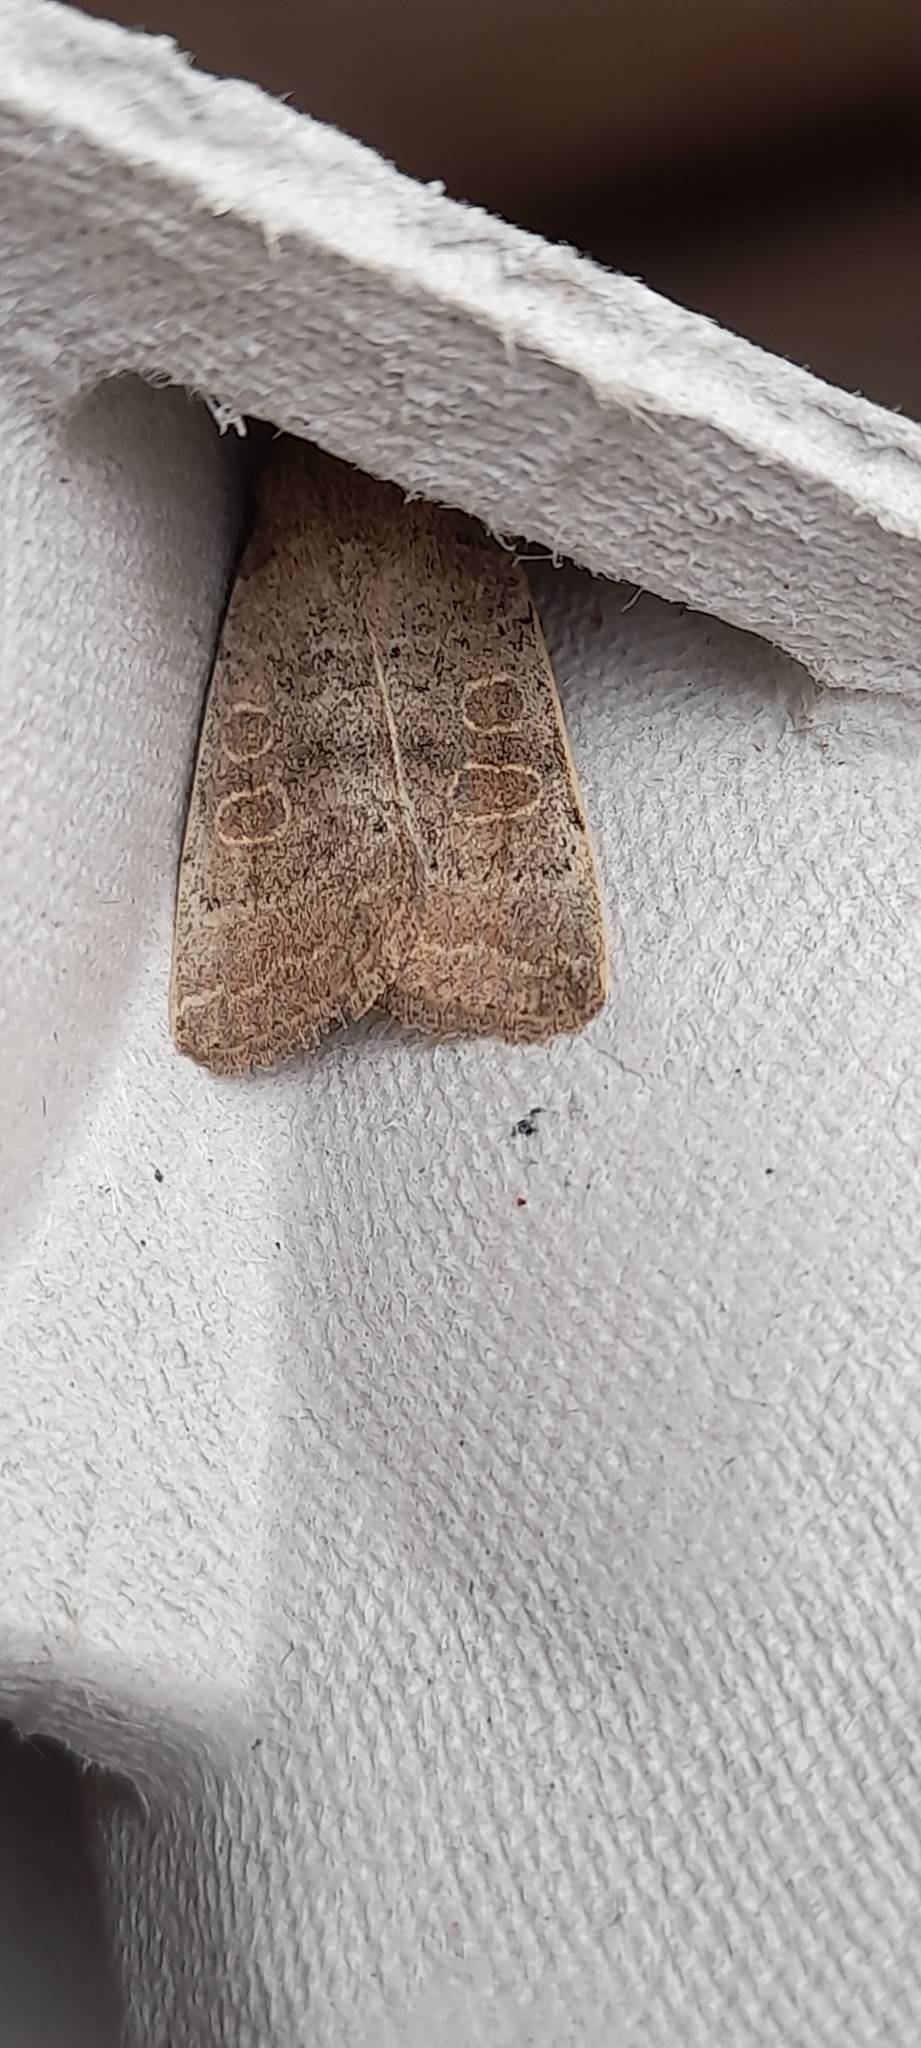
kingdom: Animalia
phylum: Arthropoda
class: Insecta
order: Lepidoptera
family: Noctuidae
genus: Hoplodrina
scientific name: Hoplodrina ambigua
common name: Vine's rustic
